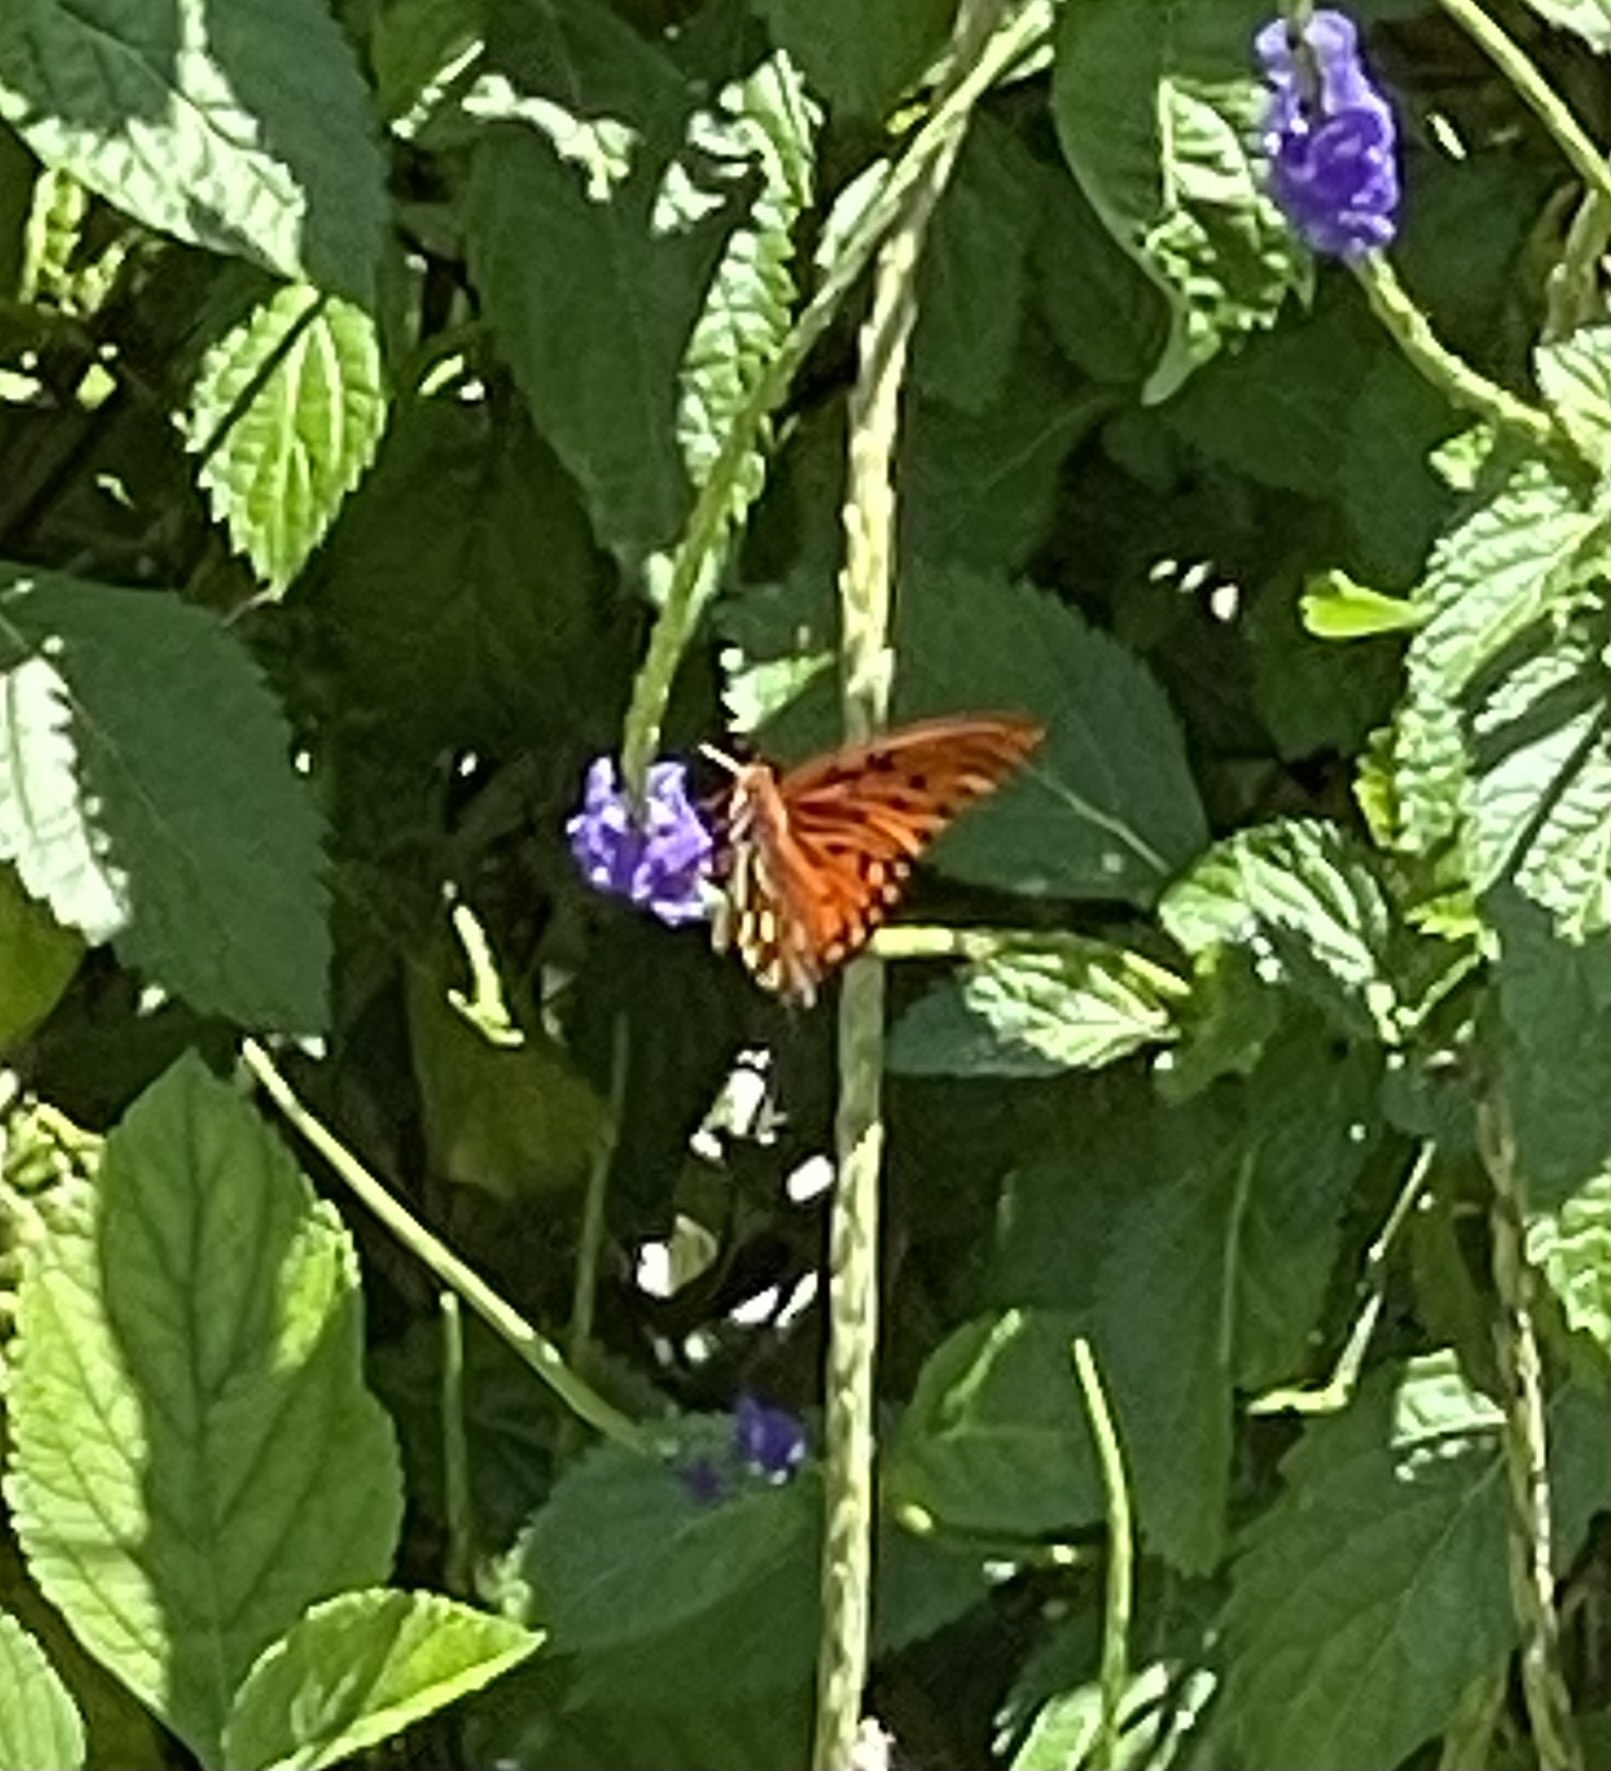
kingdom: Animalia
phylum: Arthropoda
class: Insecta
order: Lepidoptera
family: Nymphalidae
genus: Dione
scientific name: Dione vanillae
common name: Gulf fritillary
